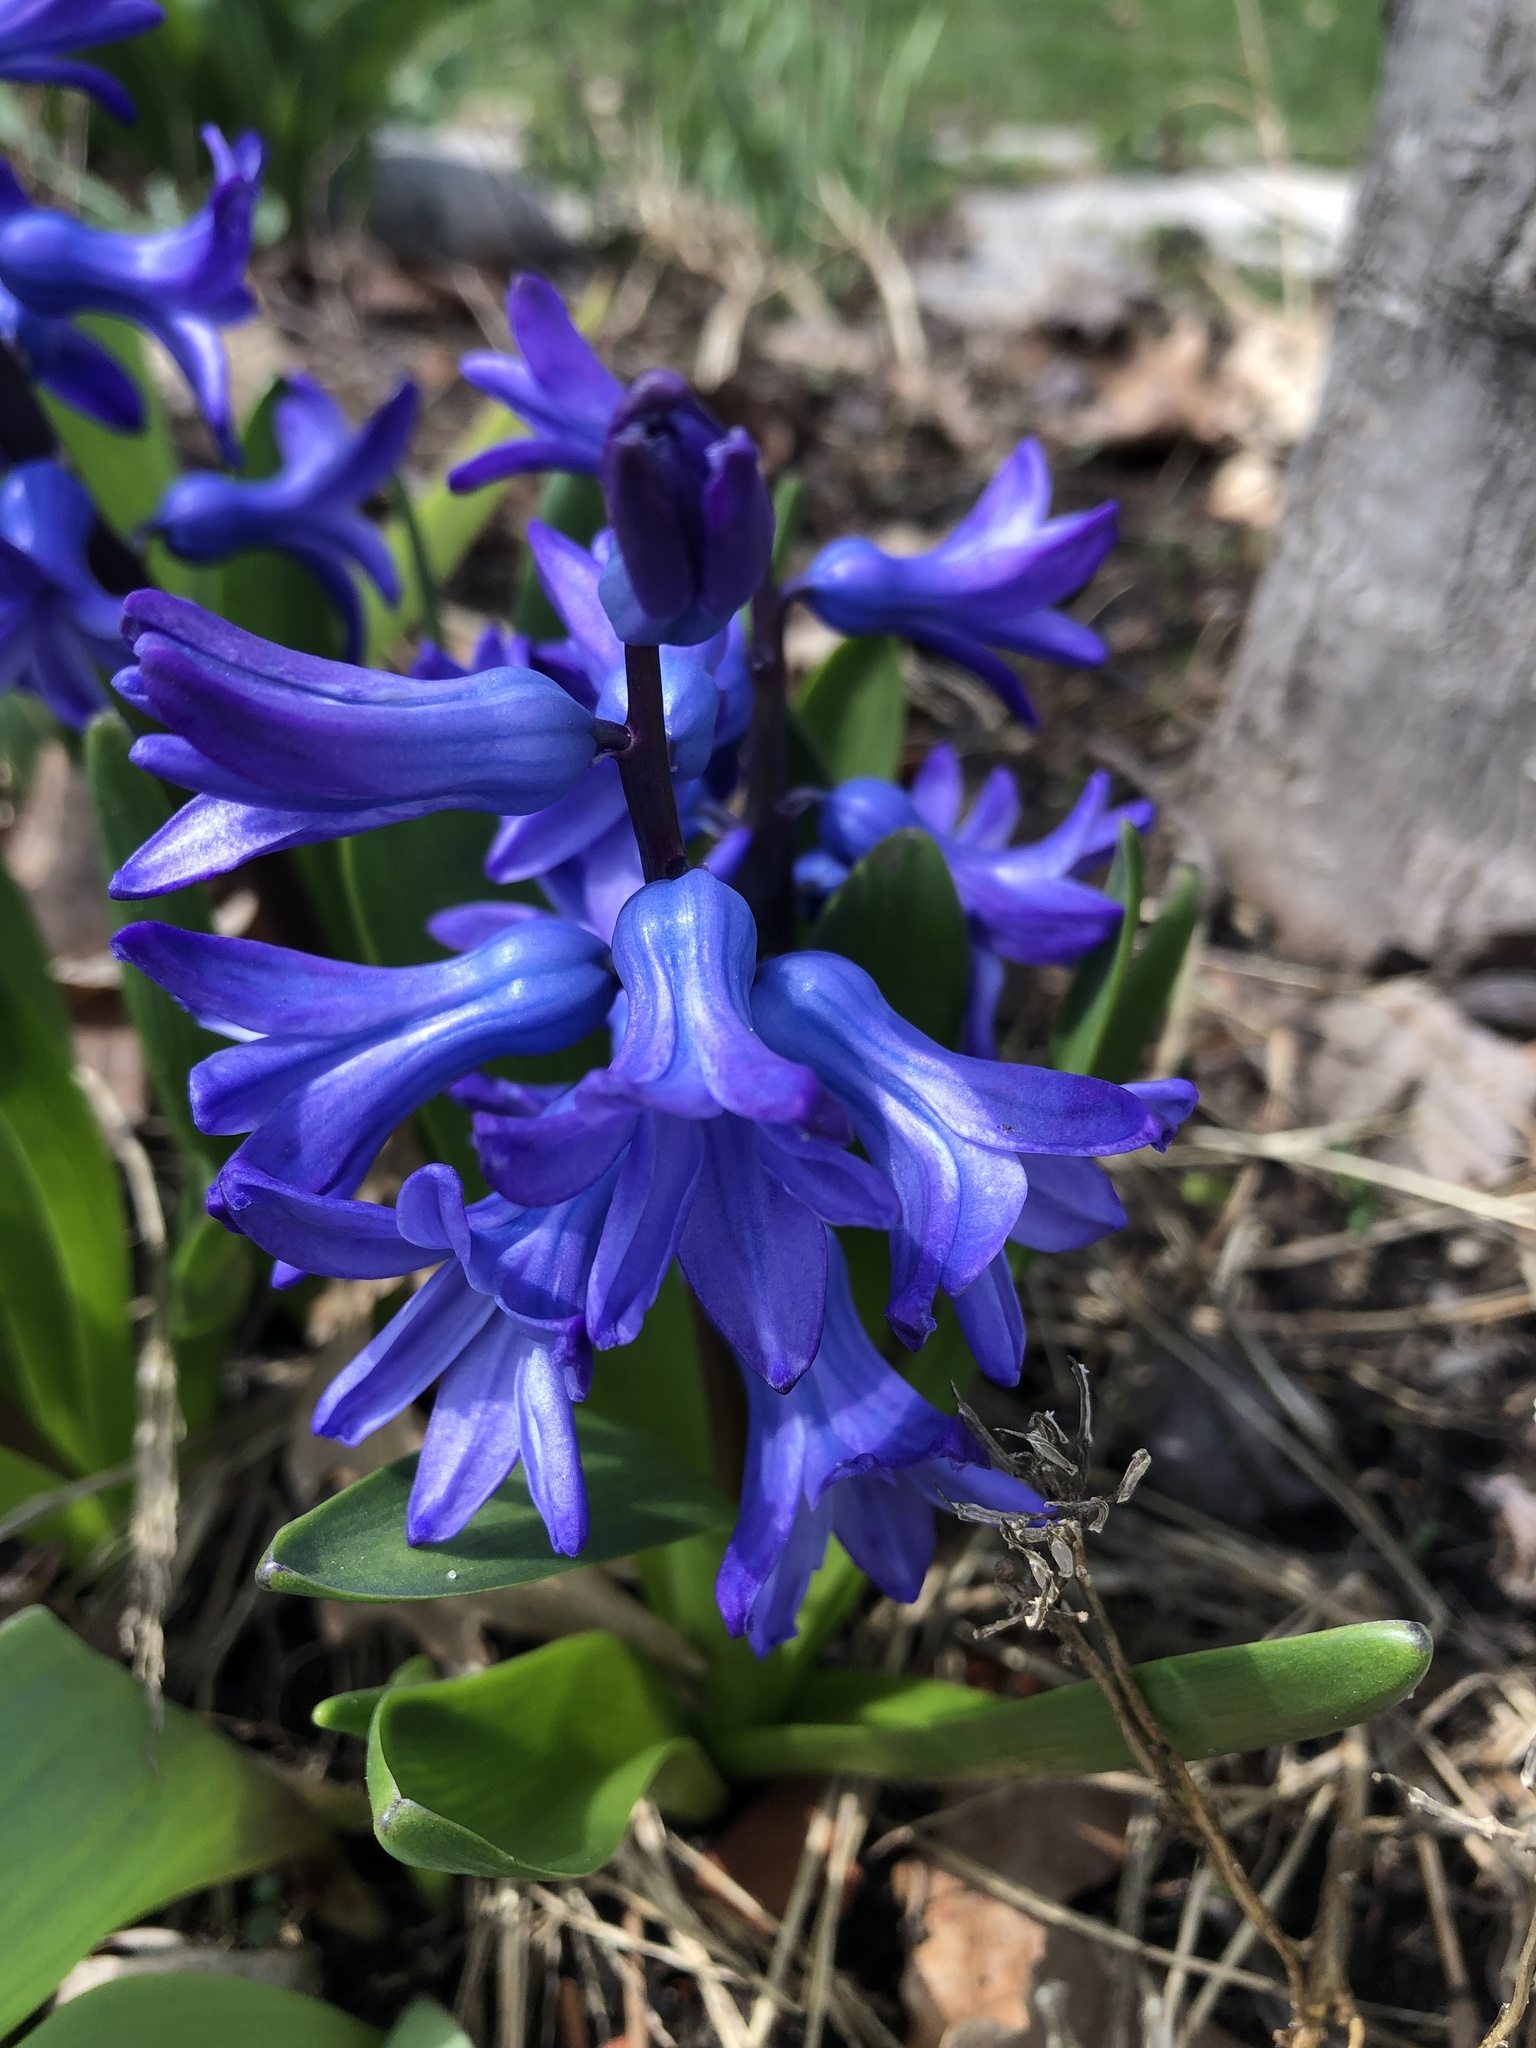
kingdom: Plantae
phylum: Tracheophyta
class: Liliopsida
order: Asparagales
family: Asparagaceae
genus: Hyacinthus
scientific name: Hyacinthus orientalis
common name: Hyacinth
